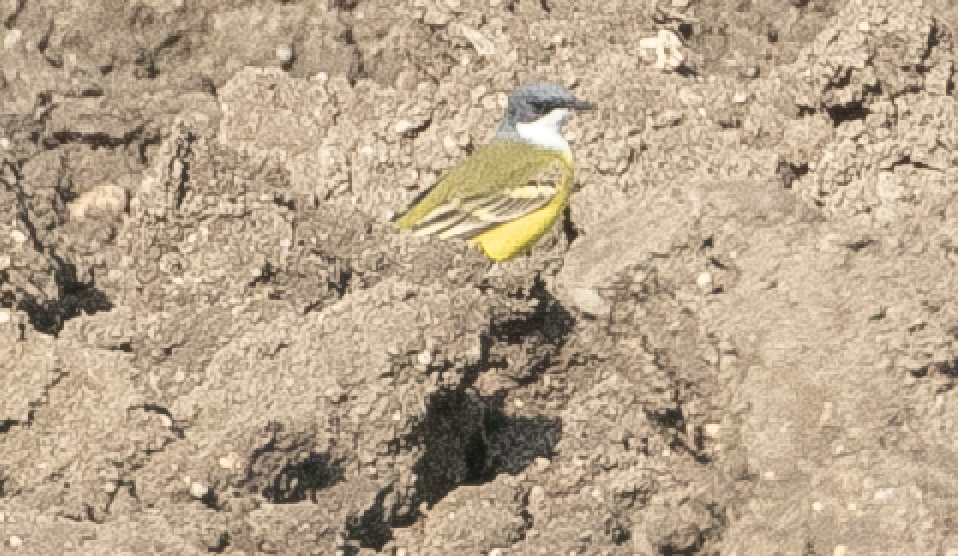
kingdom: Animalia
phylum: Chordata
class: Aves
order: Passeriformes
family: Motacillidae
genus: Motacilla
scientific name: Motacilla flava
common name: Western yellow wagtail
